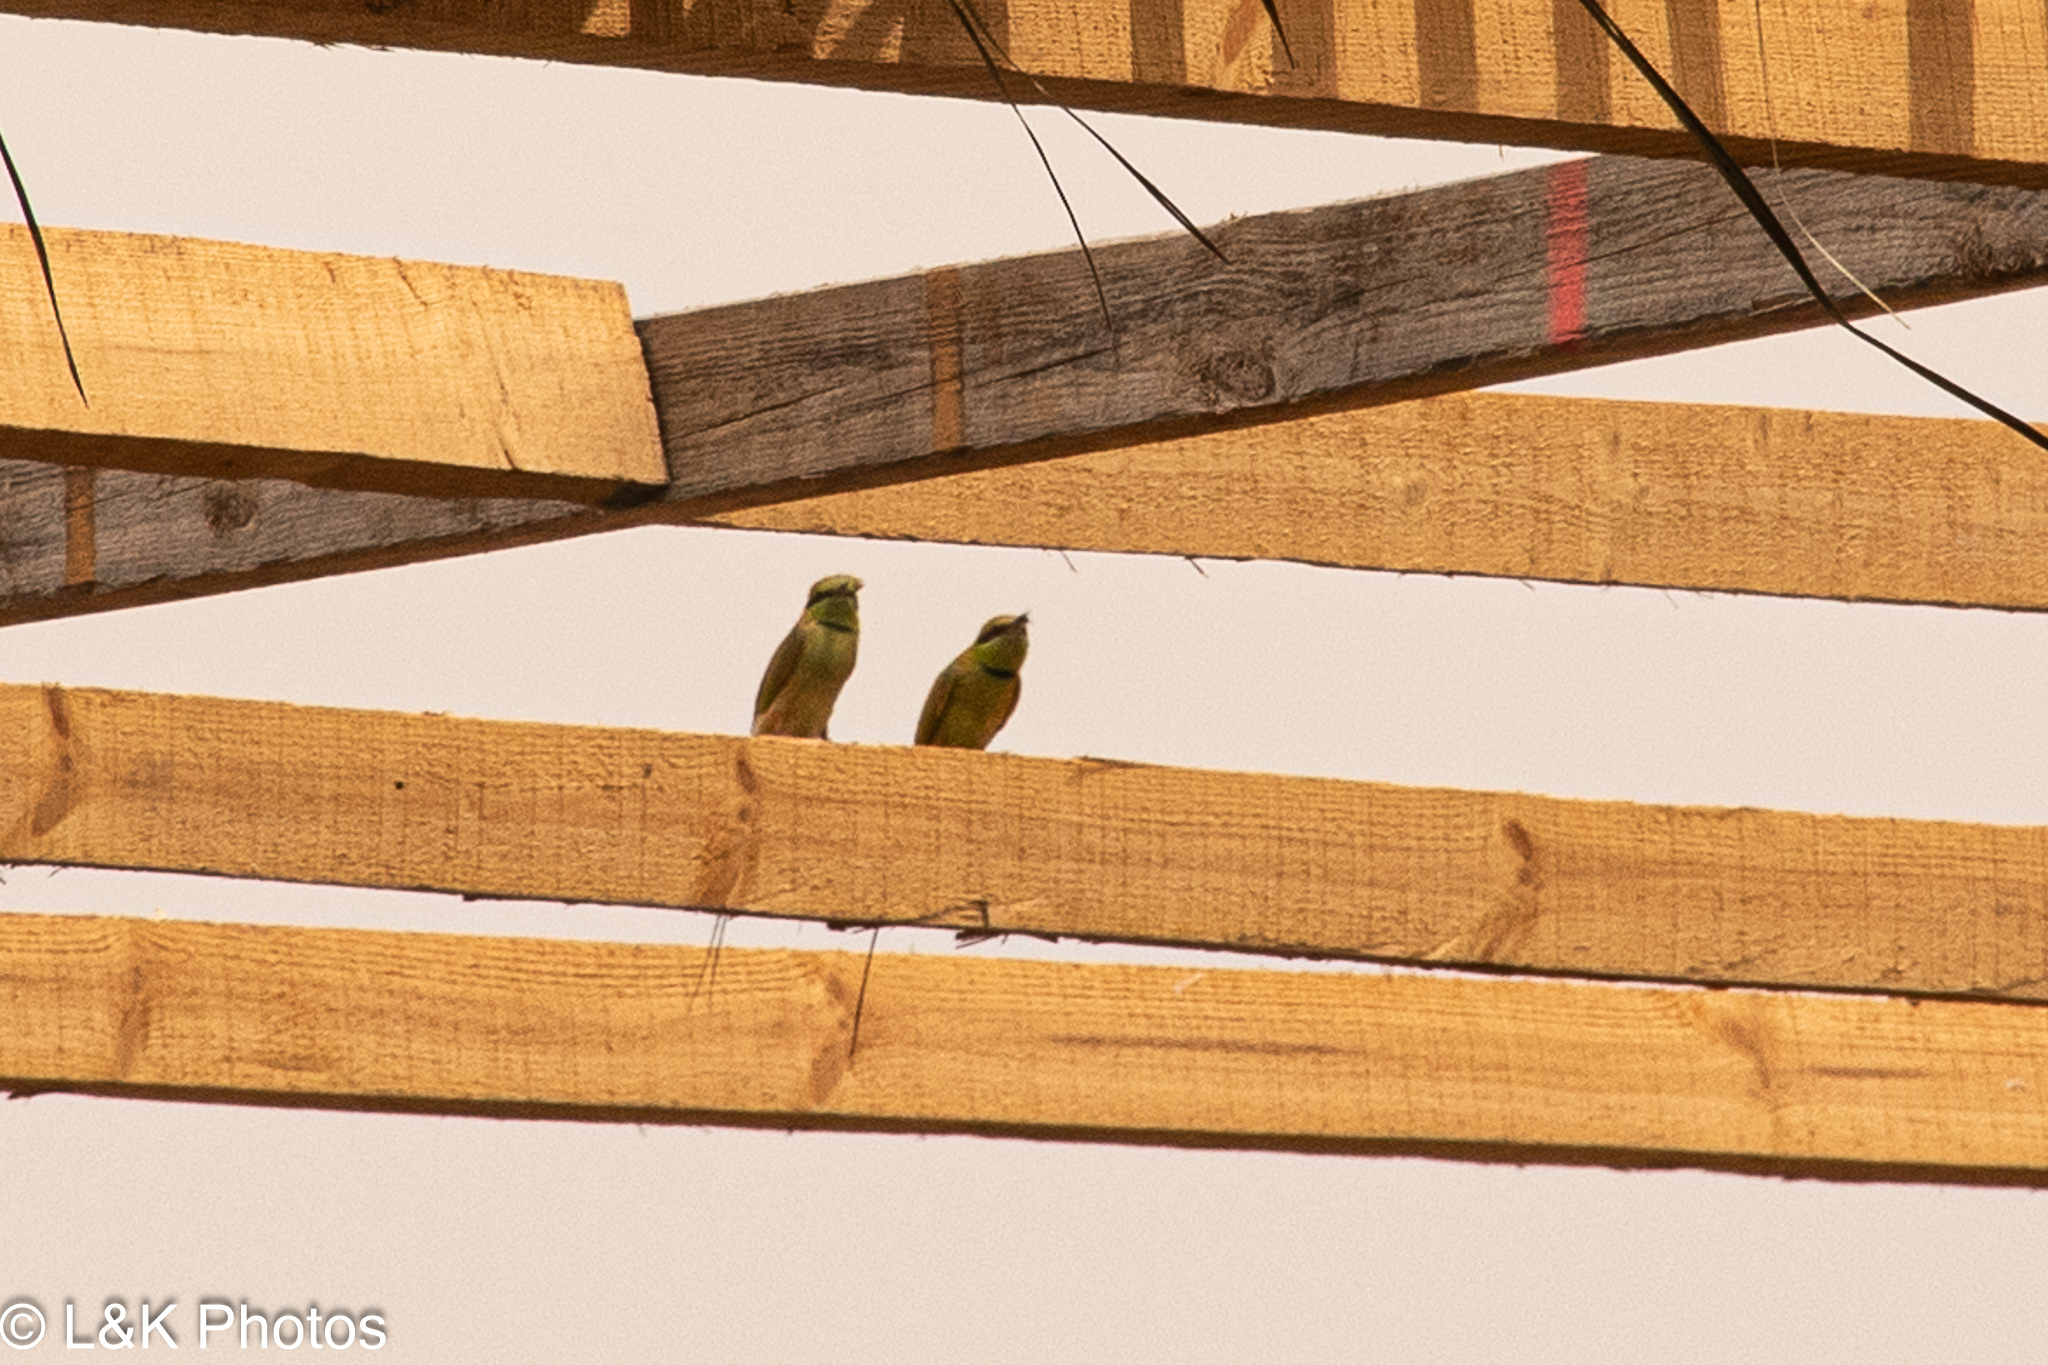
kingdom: Animalia
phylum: Chordata
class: Aves
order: Coraciiformes
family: Meropidae
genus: Merops
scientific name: Merops viridissimus
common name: African green bee-eater
